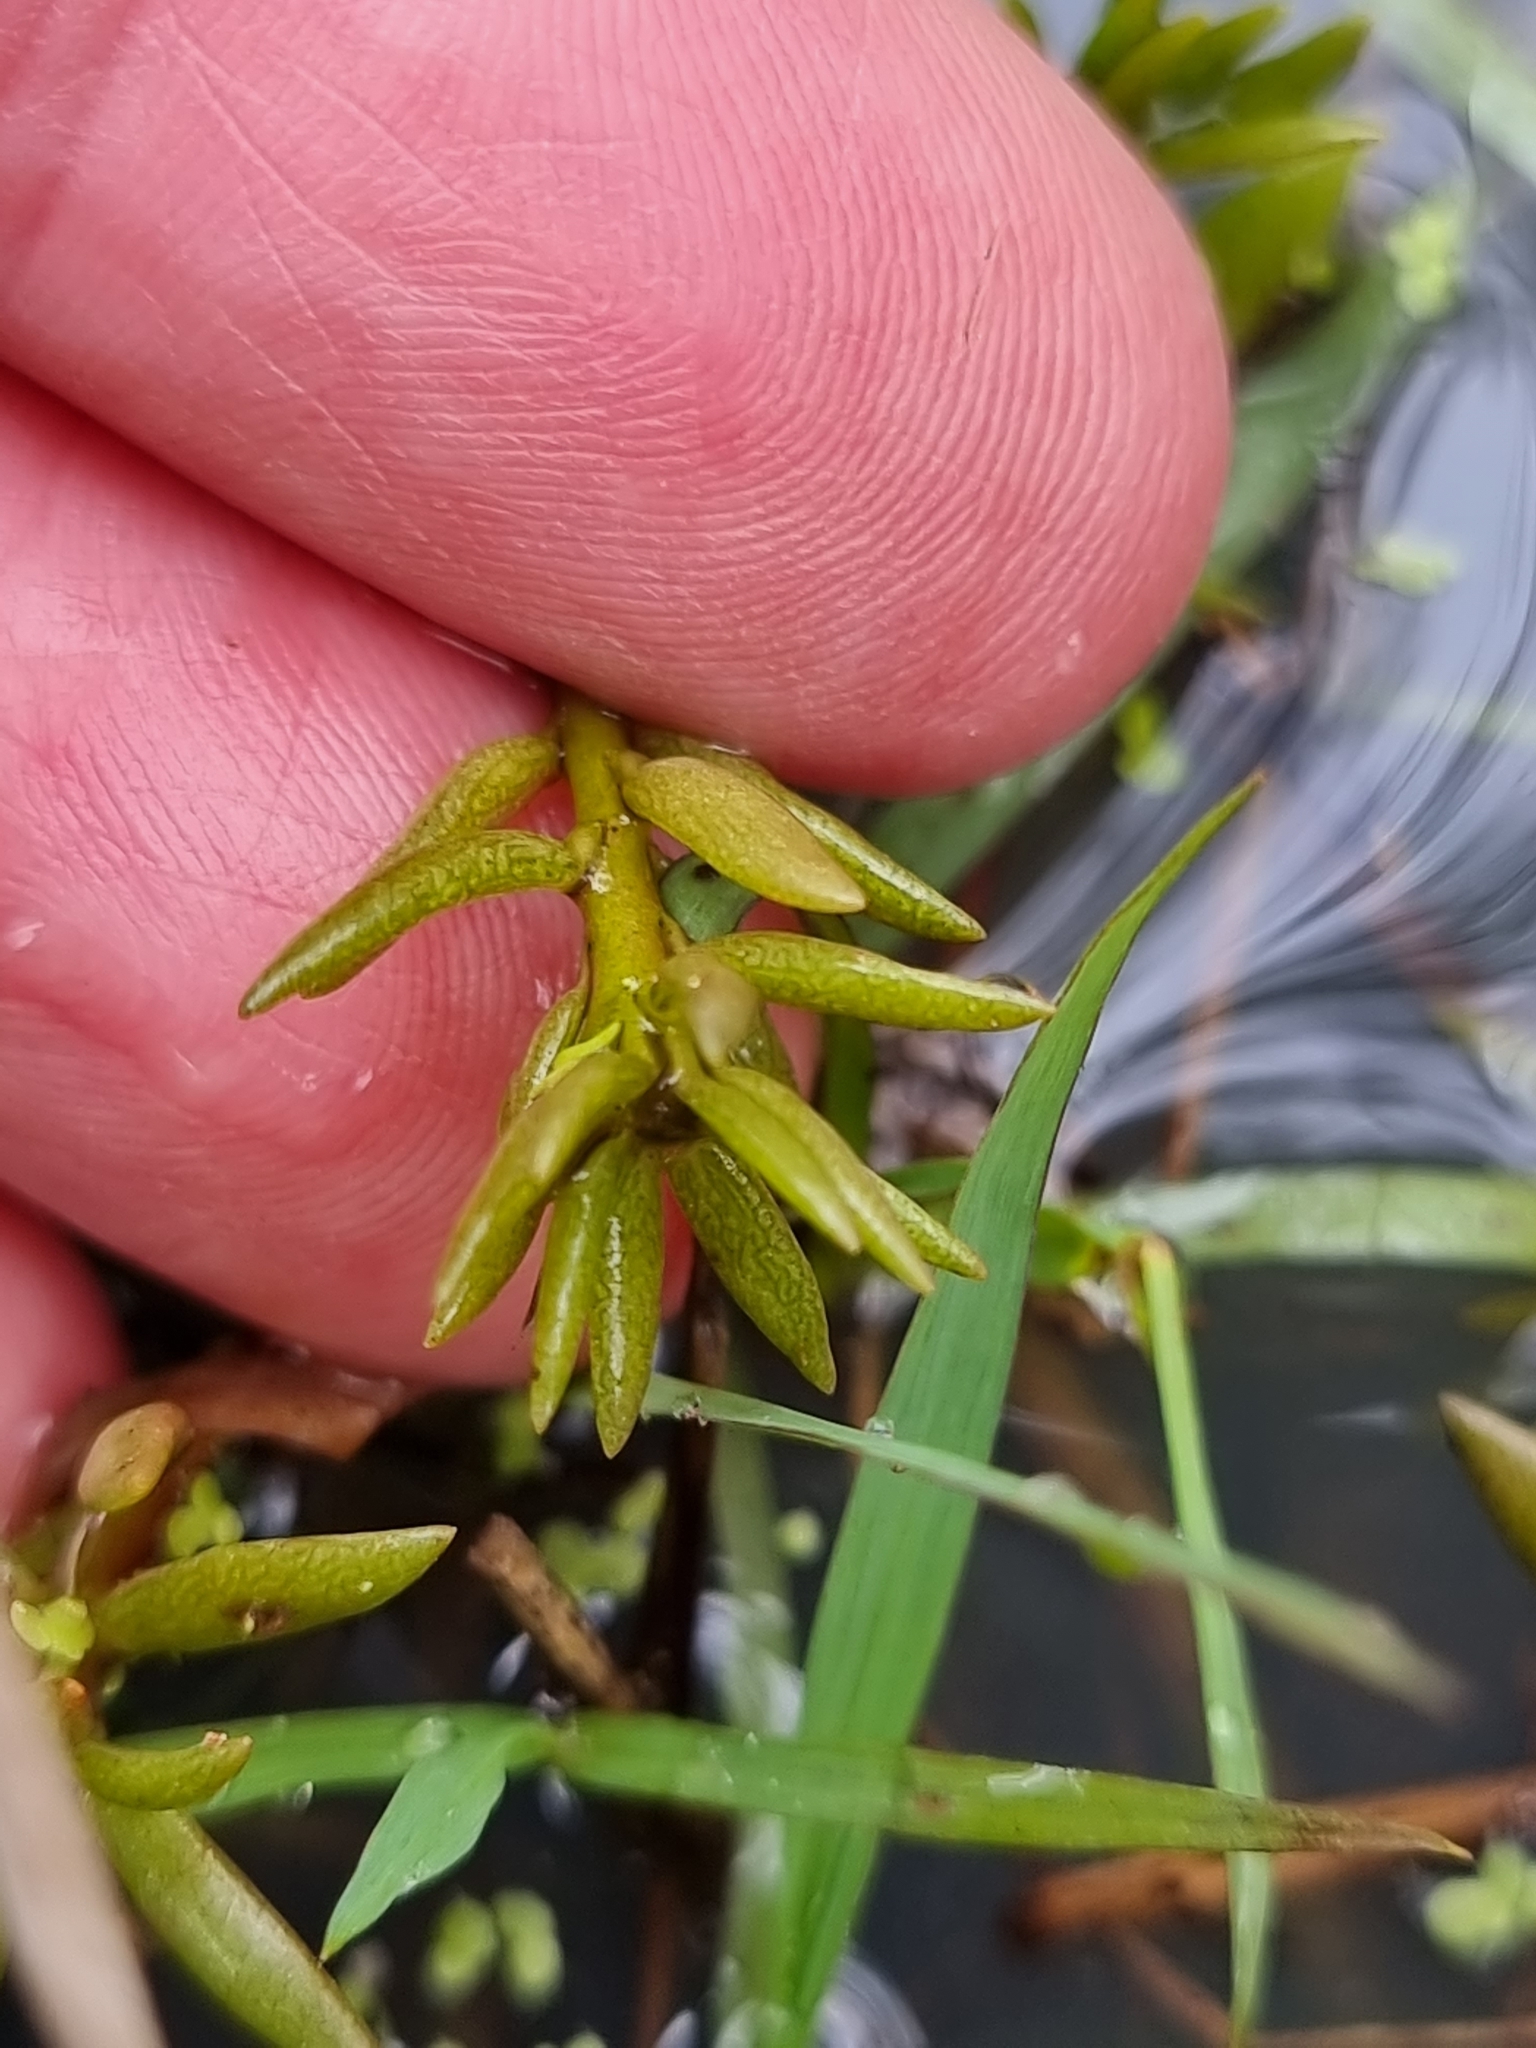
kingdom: Plantae
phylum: Tracheophyta
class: Magnoliopsida
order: Caryophyllales
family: Portulacaceae
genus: Portulaca
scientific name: Portulaca pilosa
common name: Kiss me quick
